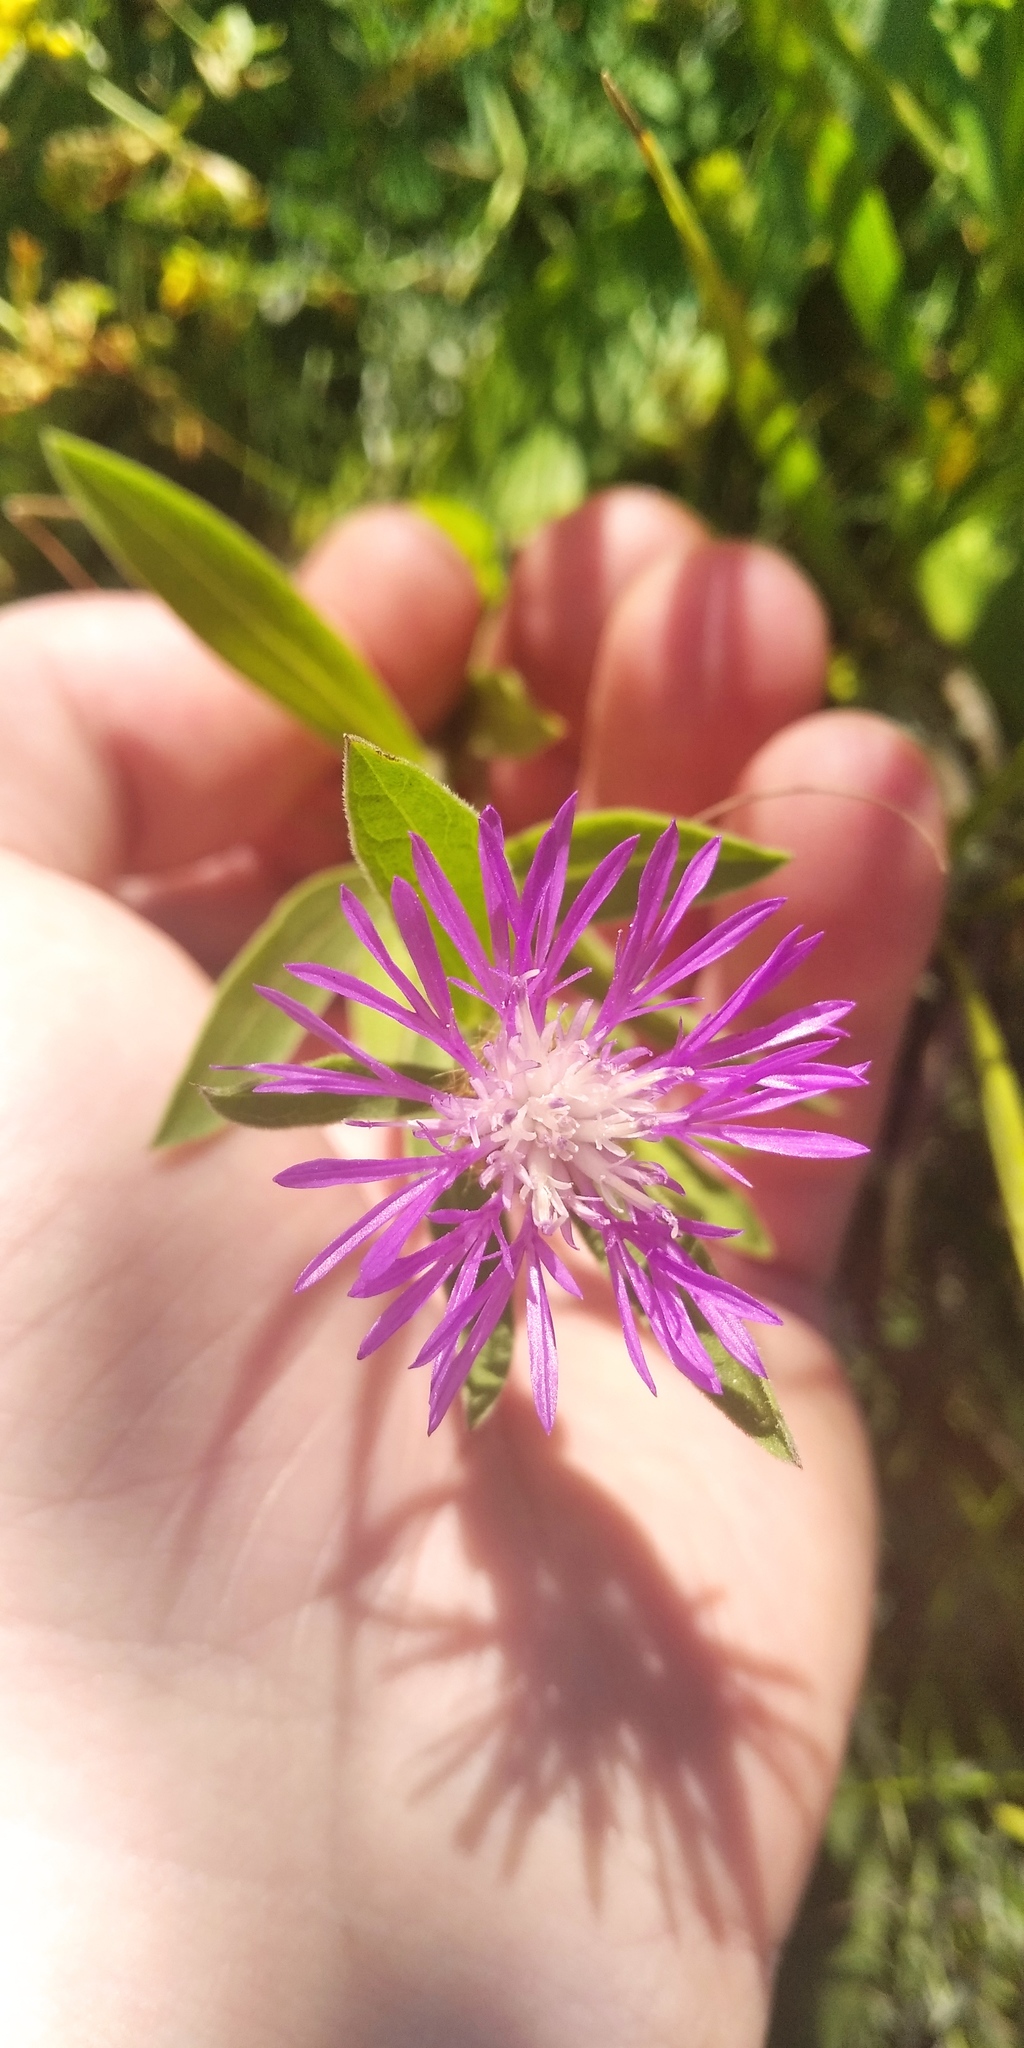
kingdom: Plantae
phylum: Tracheophyta
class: Magnoliopsida
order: Asterales
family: Asteraceae
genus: Psephellus
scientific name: Psephellus trinervius
